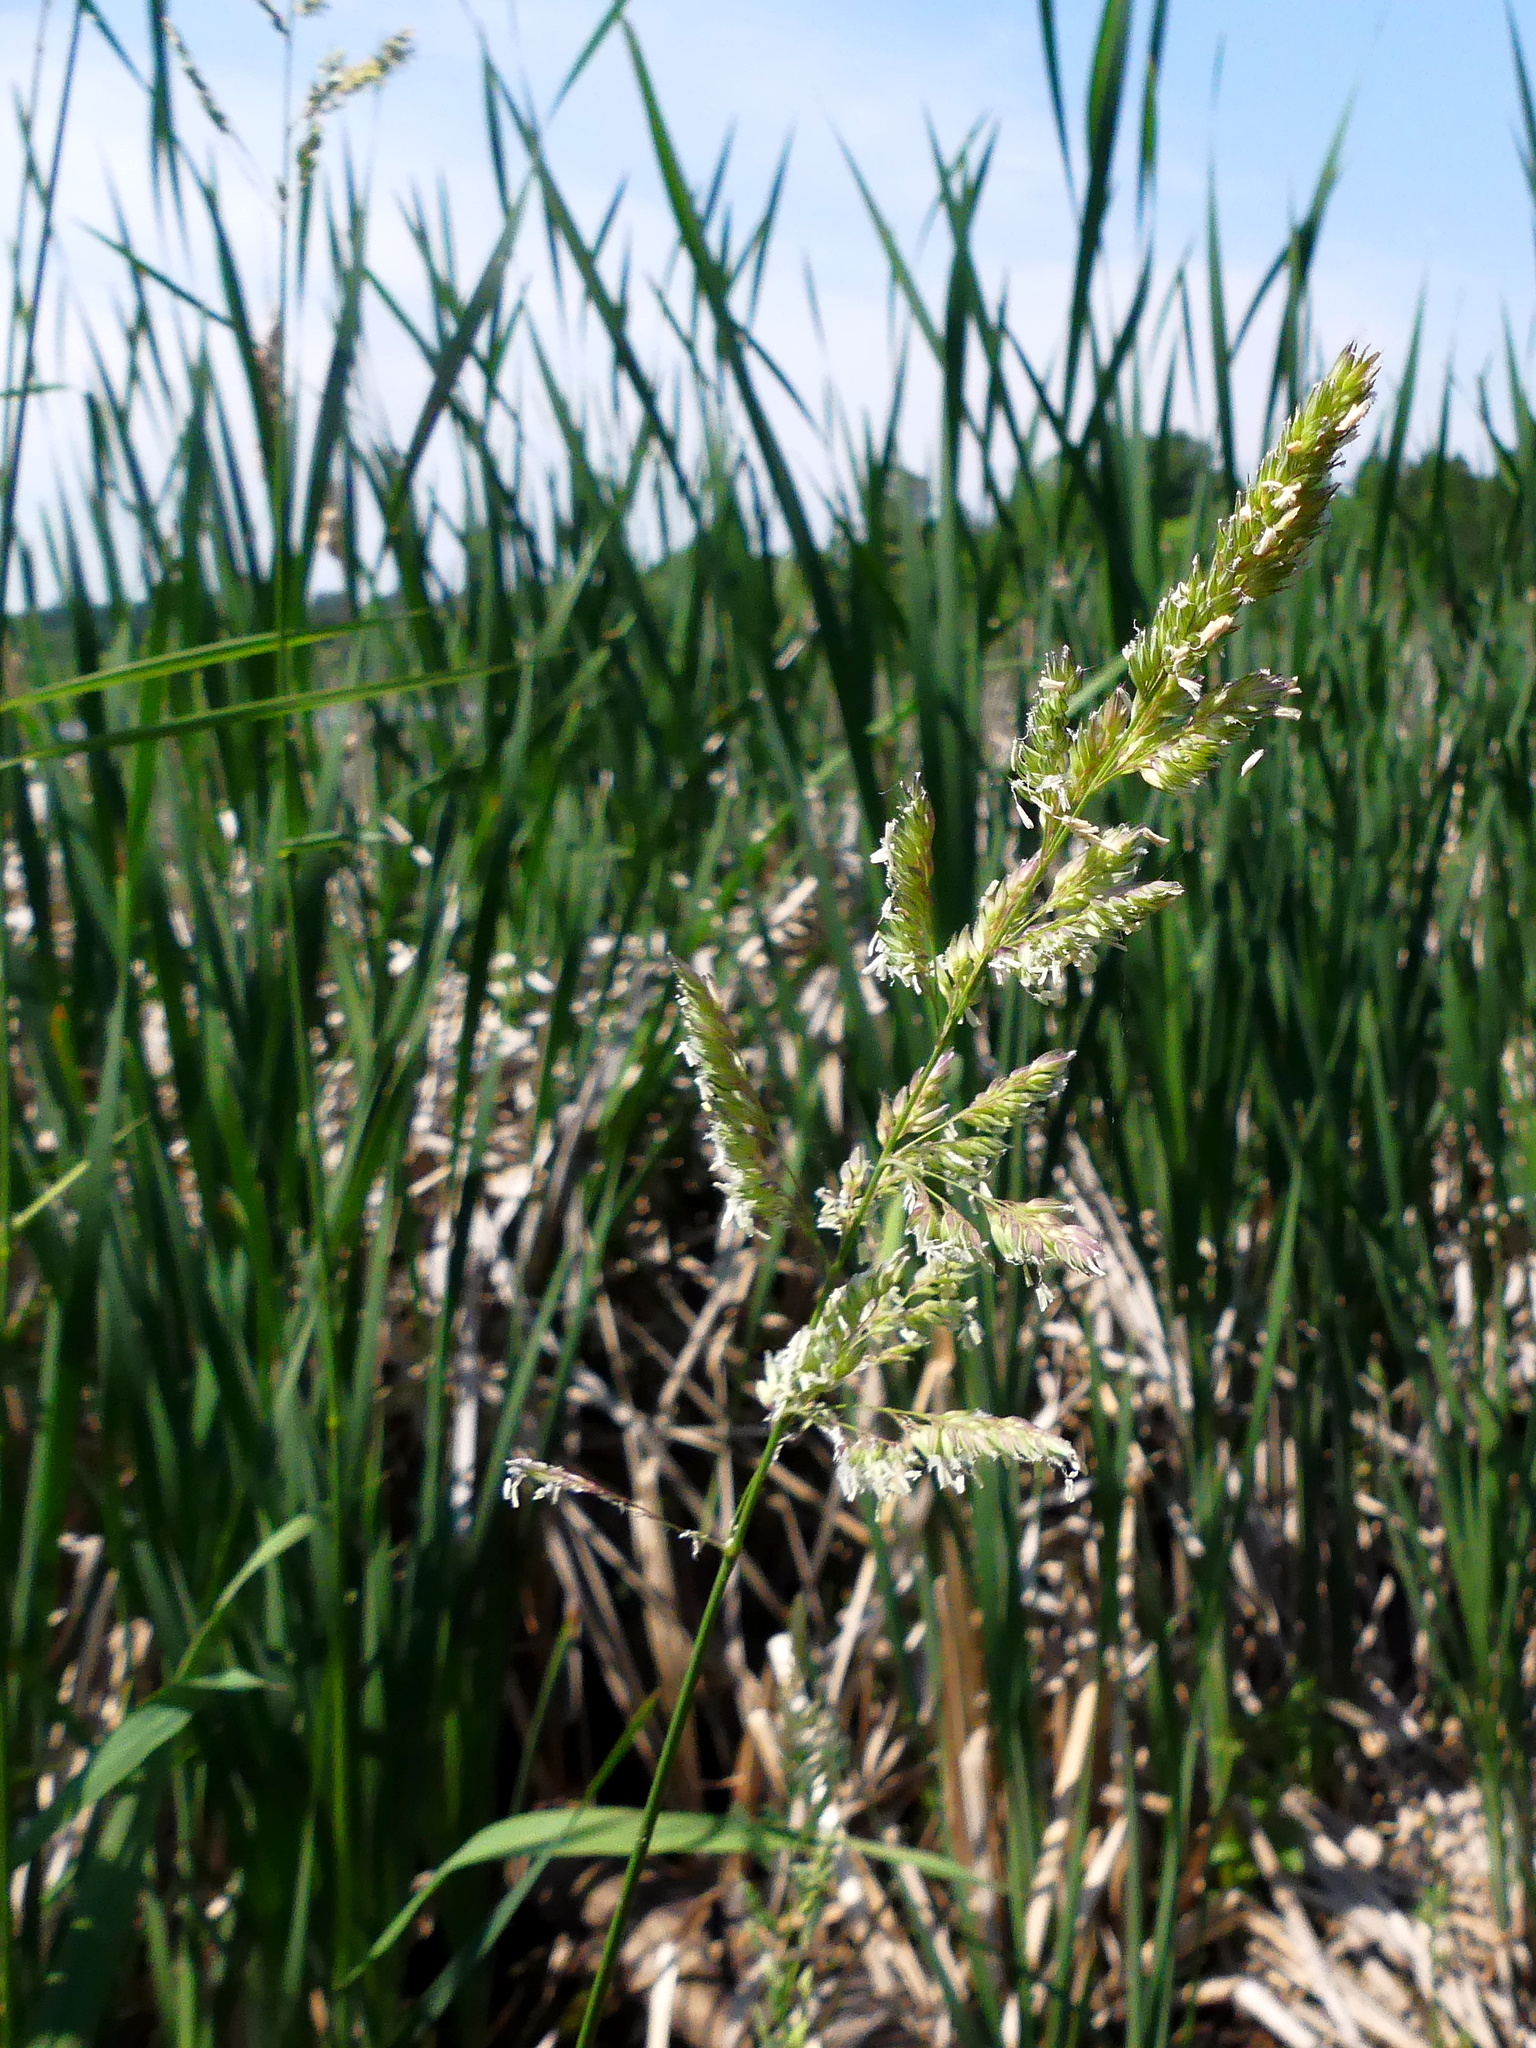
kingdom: Plantae
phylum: Tracheophyta
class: Liliopsida
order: Poales
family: Poaceae
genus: Phalaris
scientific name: Phalaris arundinacea
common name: Reed canary-grass
